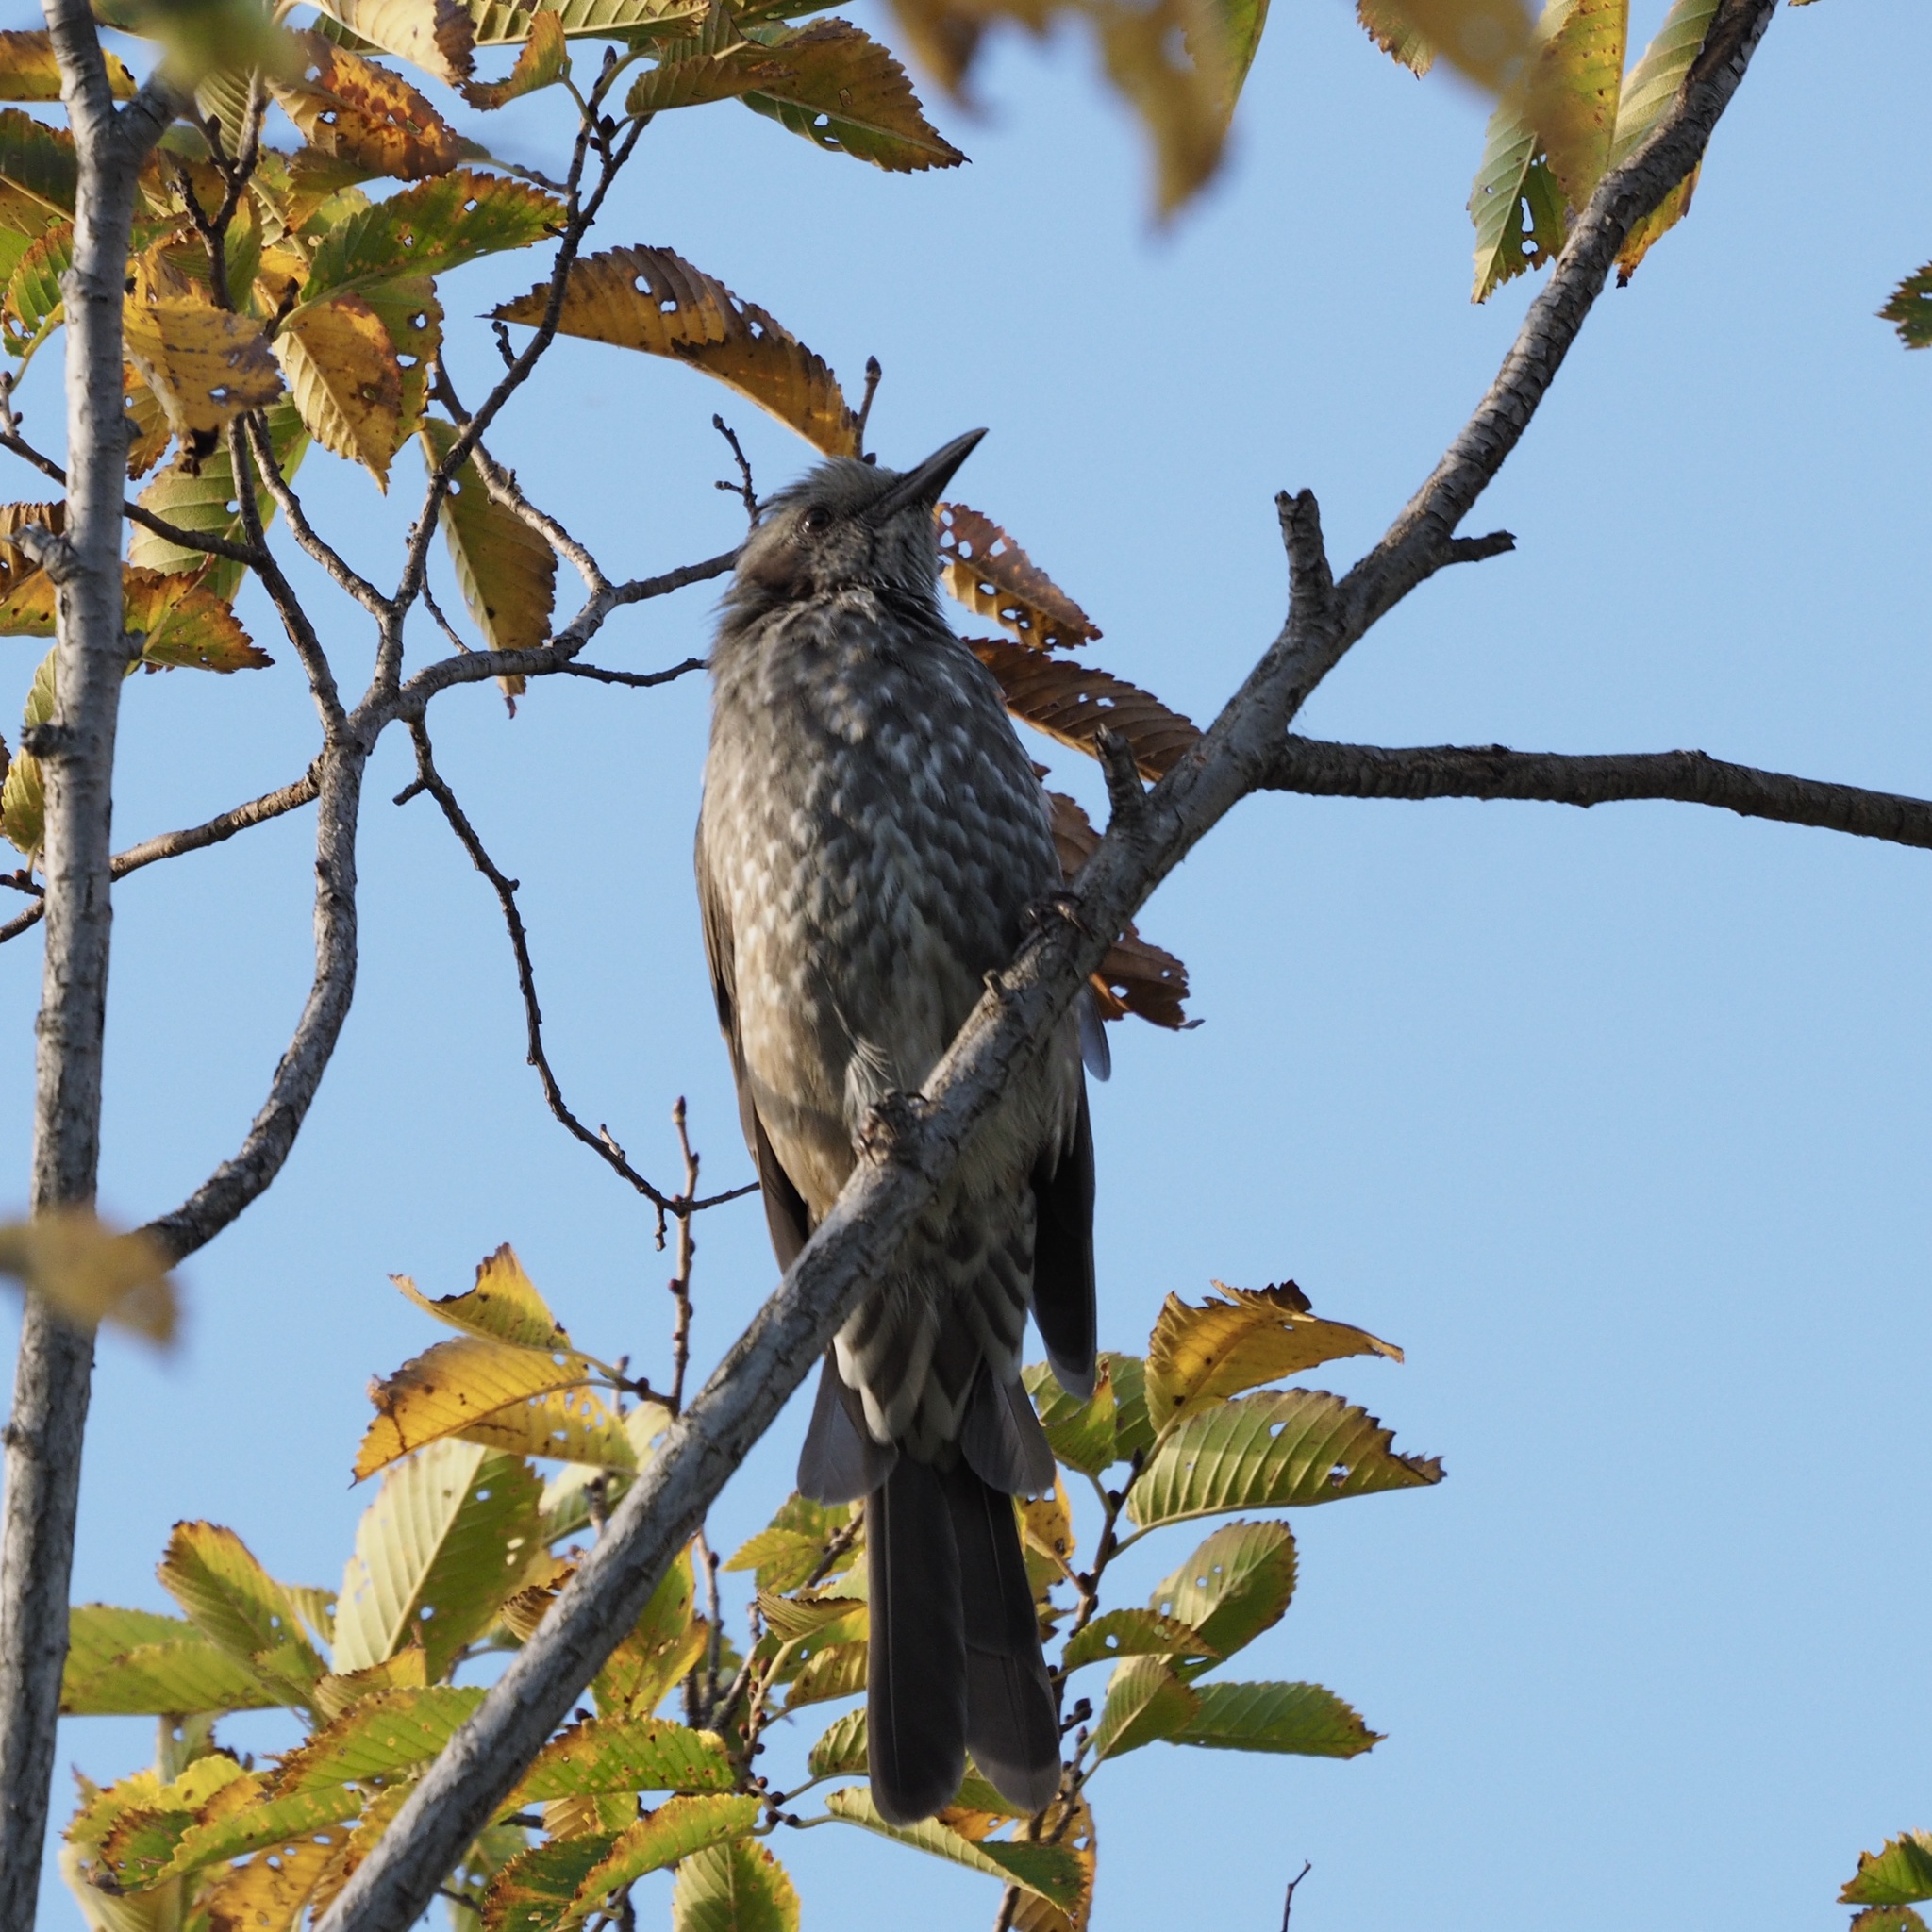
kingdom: Animalia
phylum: Chordata
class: Aves
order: Passeriformes
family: Pycnonotidae
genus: Hypsipetes
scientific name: Hypsipetes amaurotis
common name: Brown-eared bulbul
